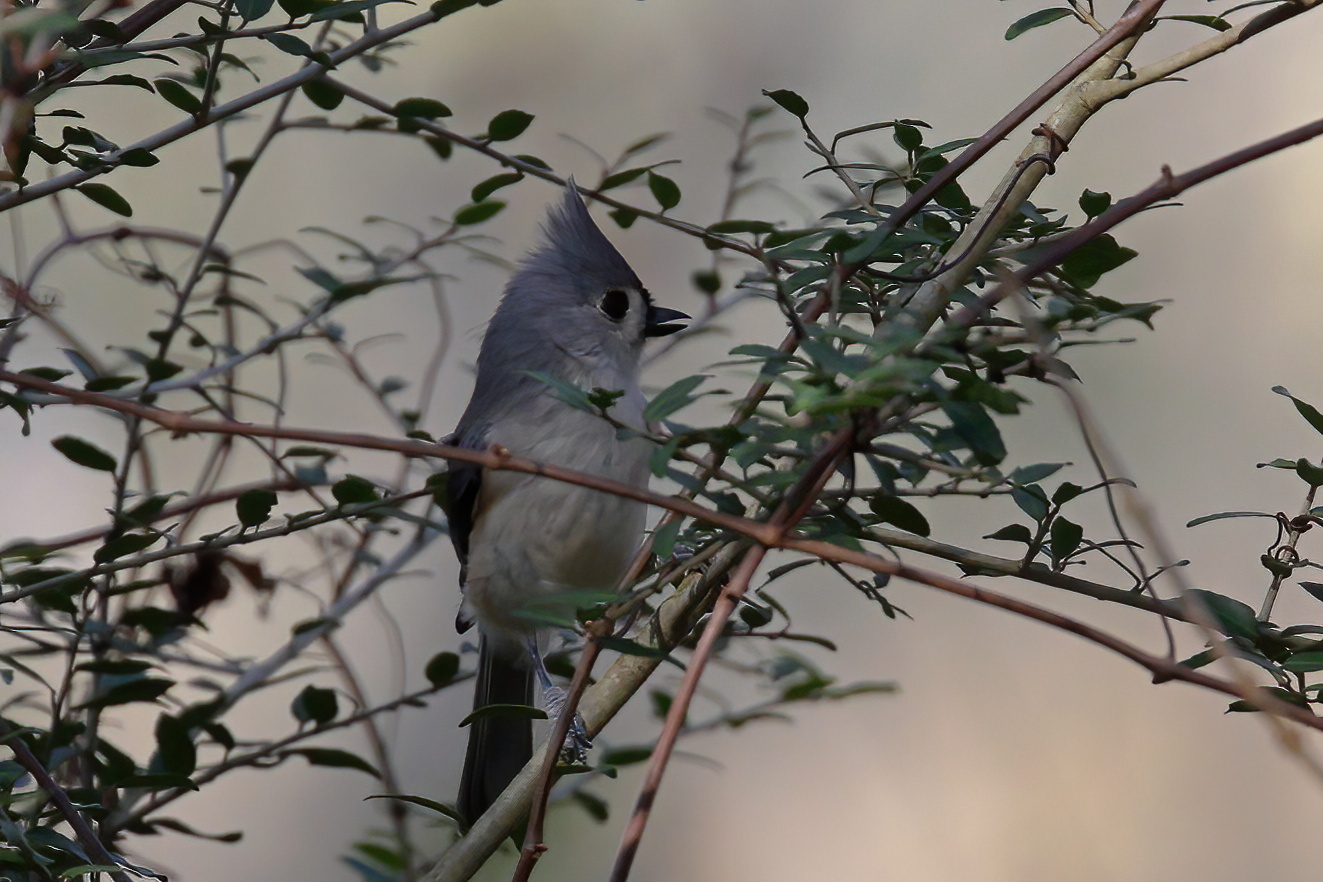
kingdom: Animalia
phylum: Chordata
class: Aves
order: Passeriformes
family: Paridae
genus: Baeolophus
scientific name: Baeolophus bicolor
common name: Tufted titmouse
